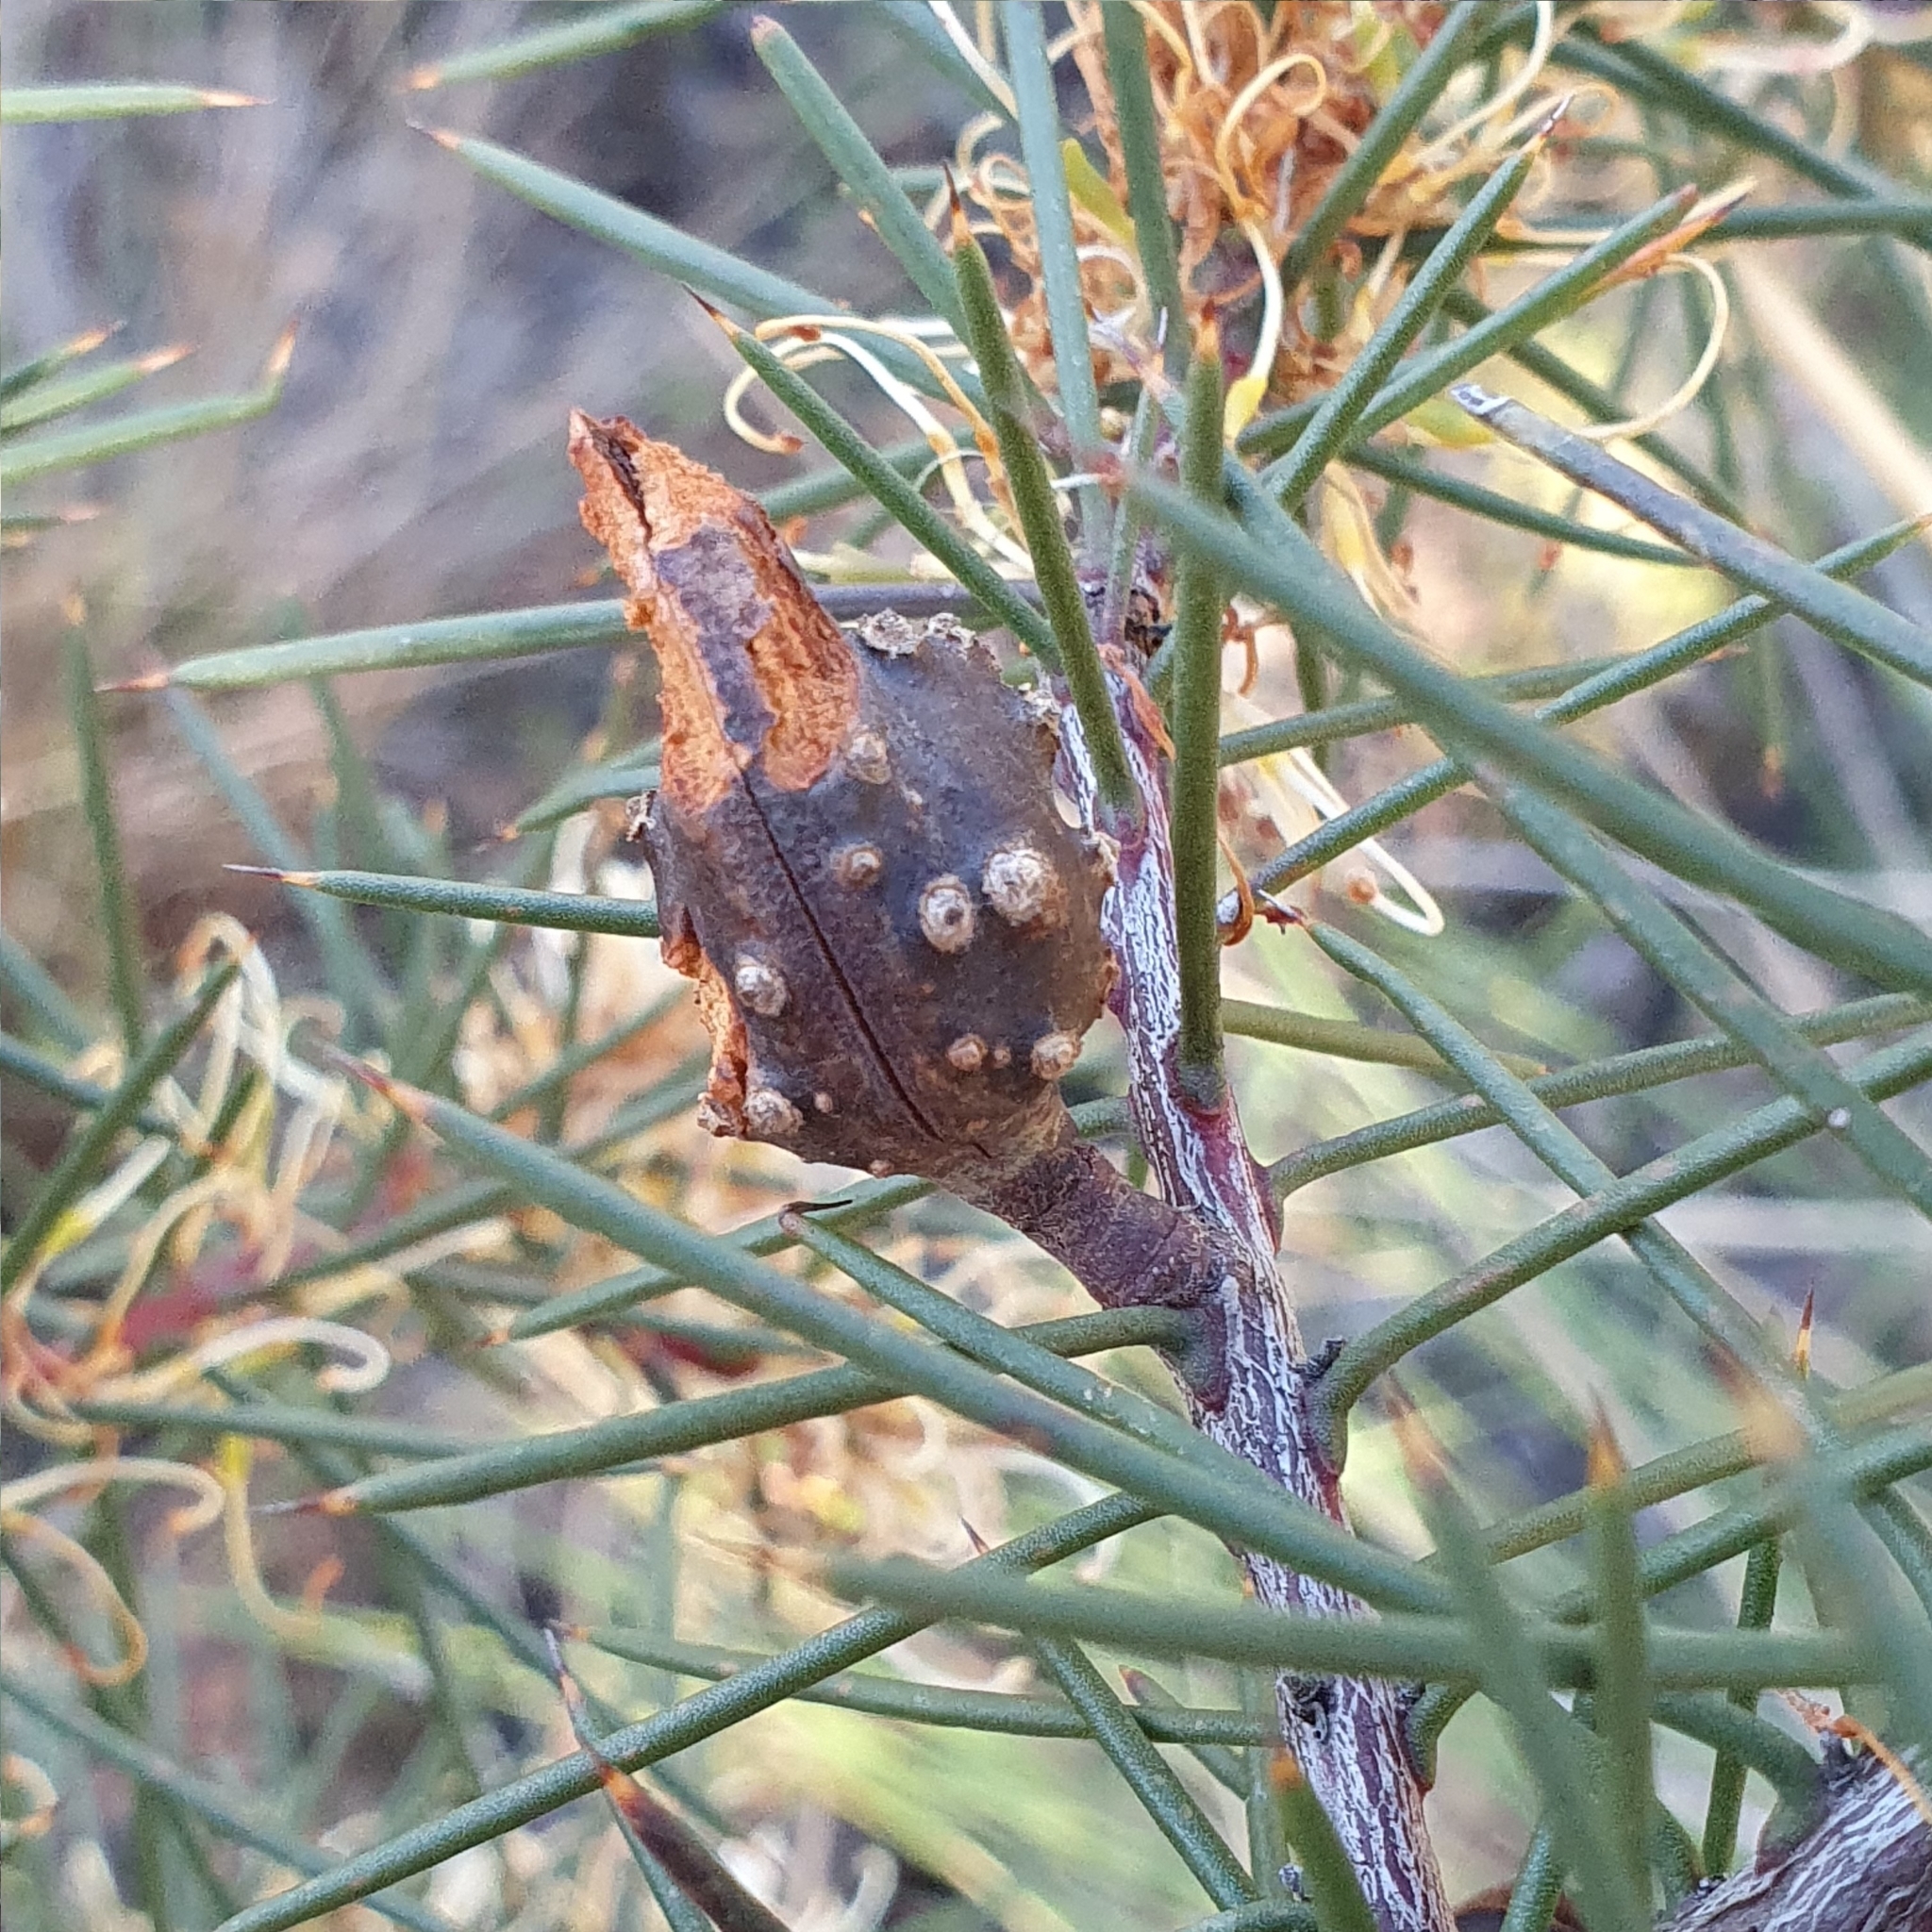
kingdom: Plantae
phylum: Tracheophyta
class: Magnoliopsida
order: Proteales
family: Proteaceae
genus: Hakea
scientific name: Hakea decurrens
